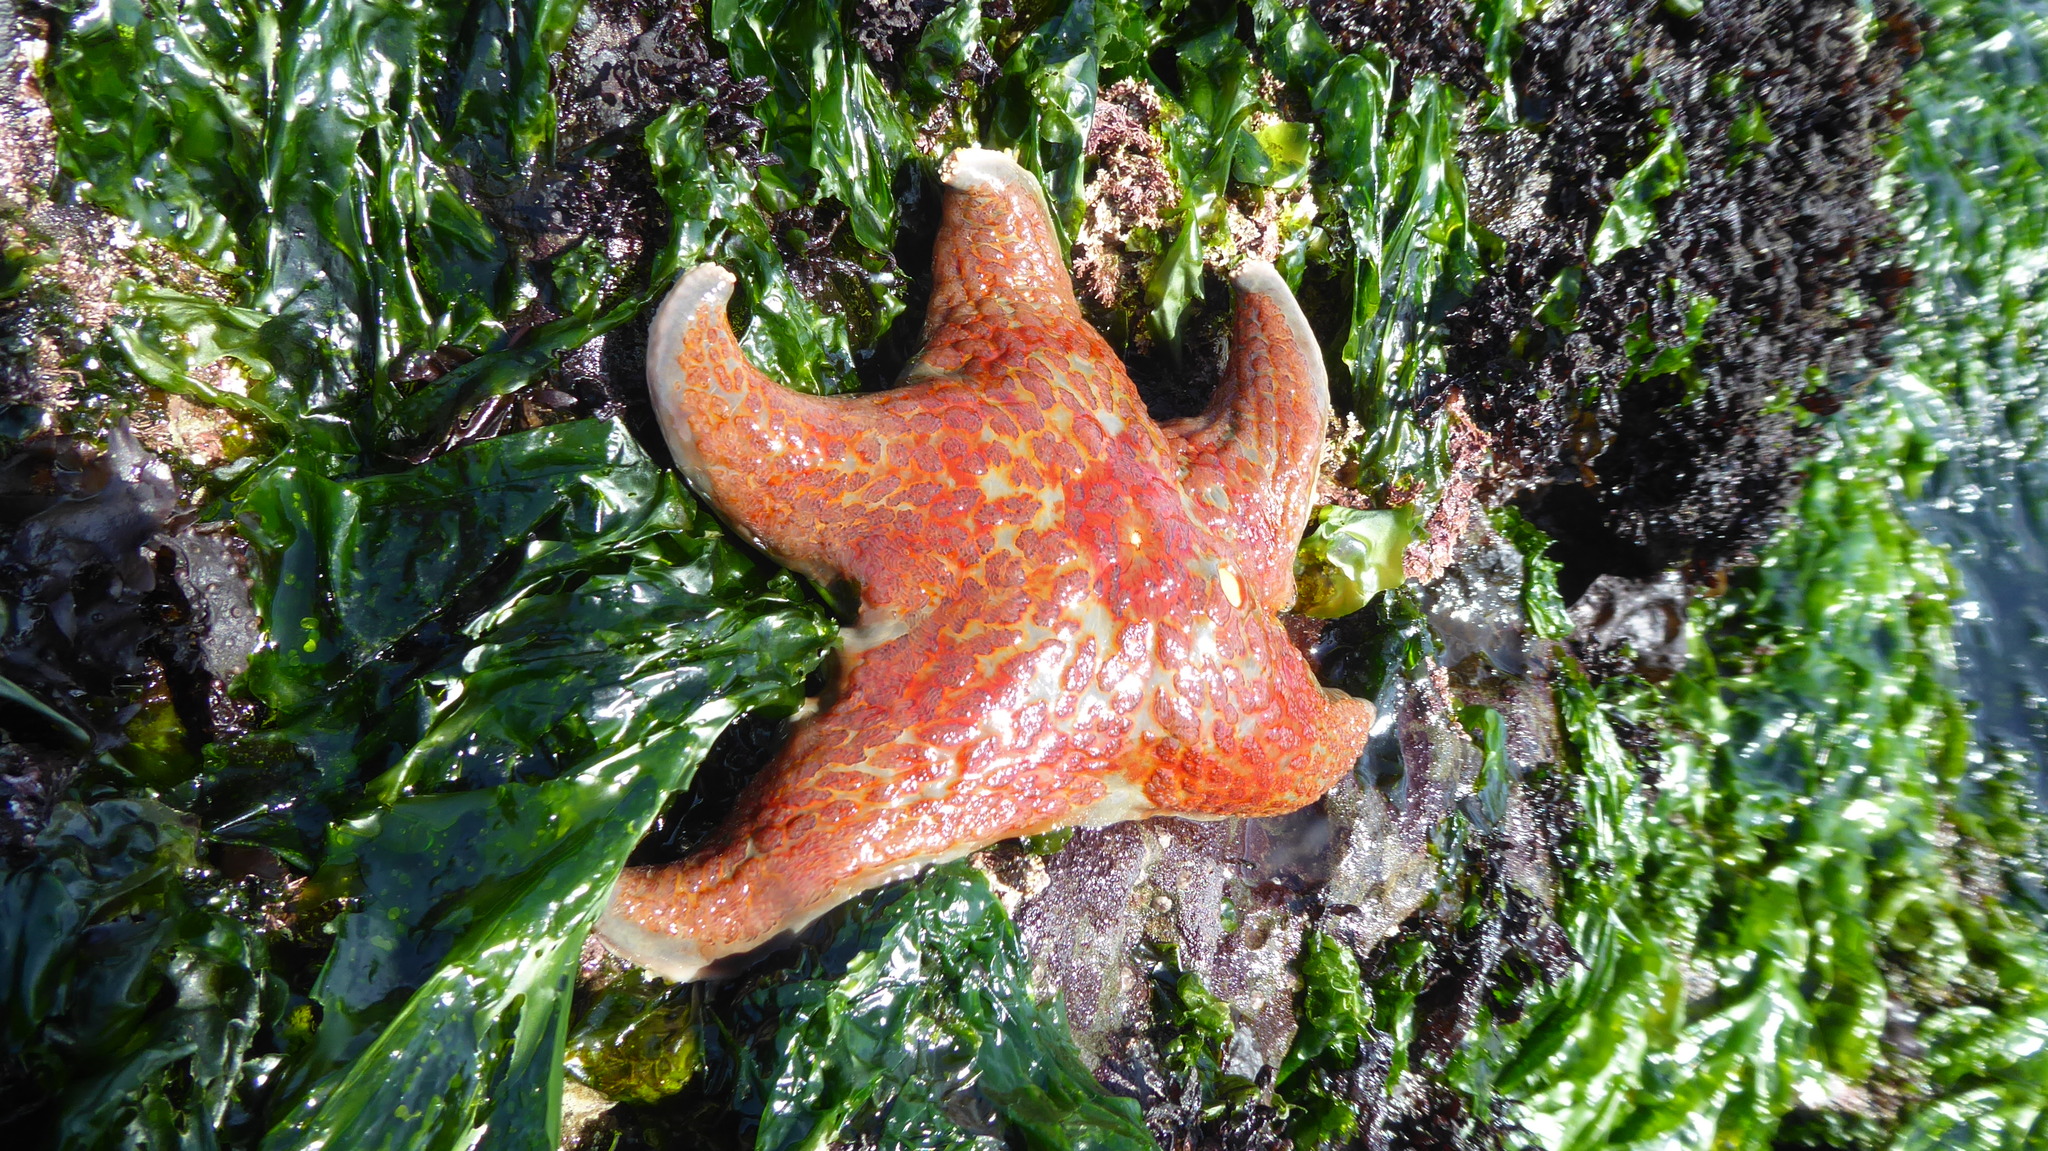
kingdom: Animalia
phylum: Echinodermata
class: Asteroidea
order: Valvatida
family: Asteropseidae
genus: Dermasterias
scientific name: Dermasterias imbricata
